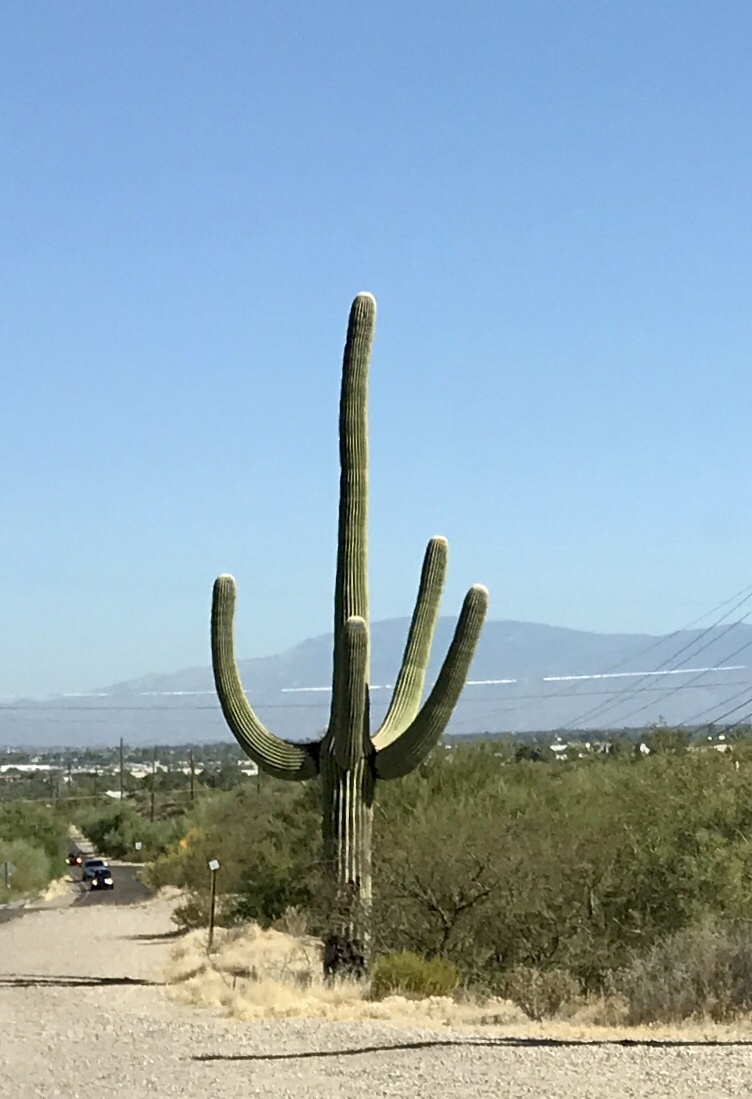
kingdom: Plantae
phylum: Tracheophyta
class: Magnoliopsida
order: Caryophyllales
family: Cactaceae
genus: Carnegiea
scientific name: Carnegiea gigantea
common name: Saguaro
